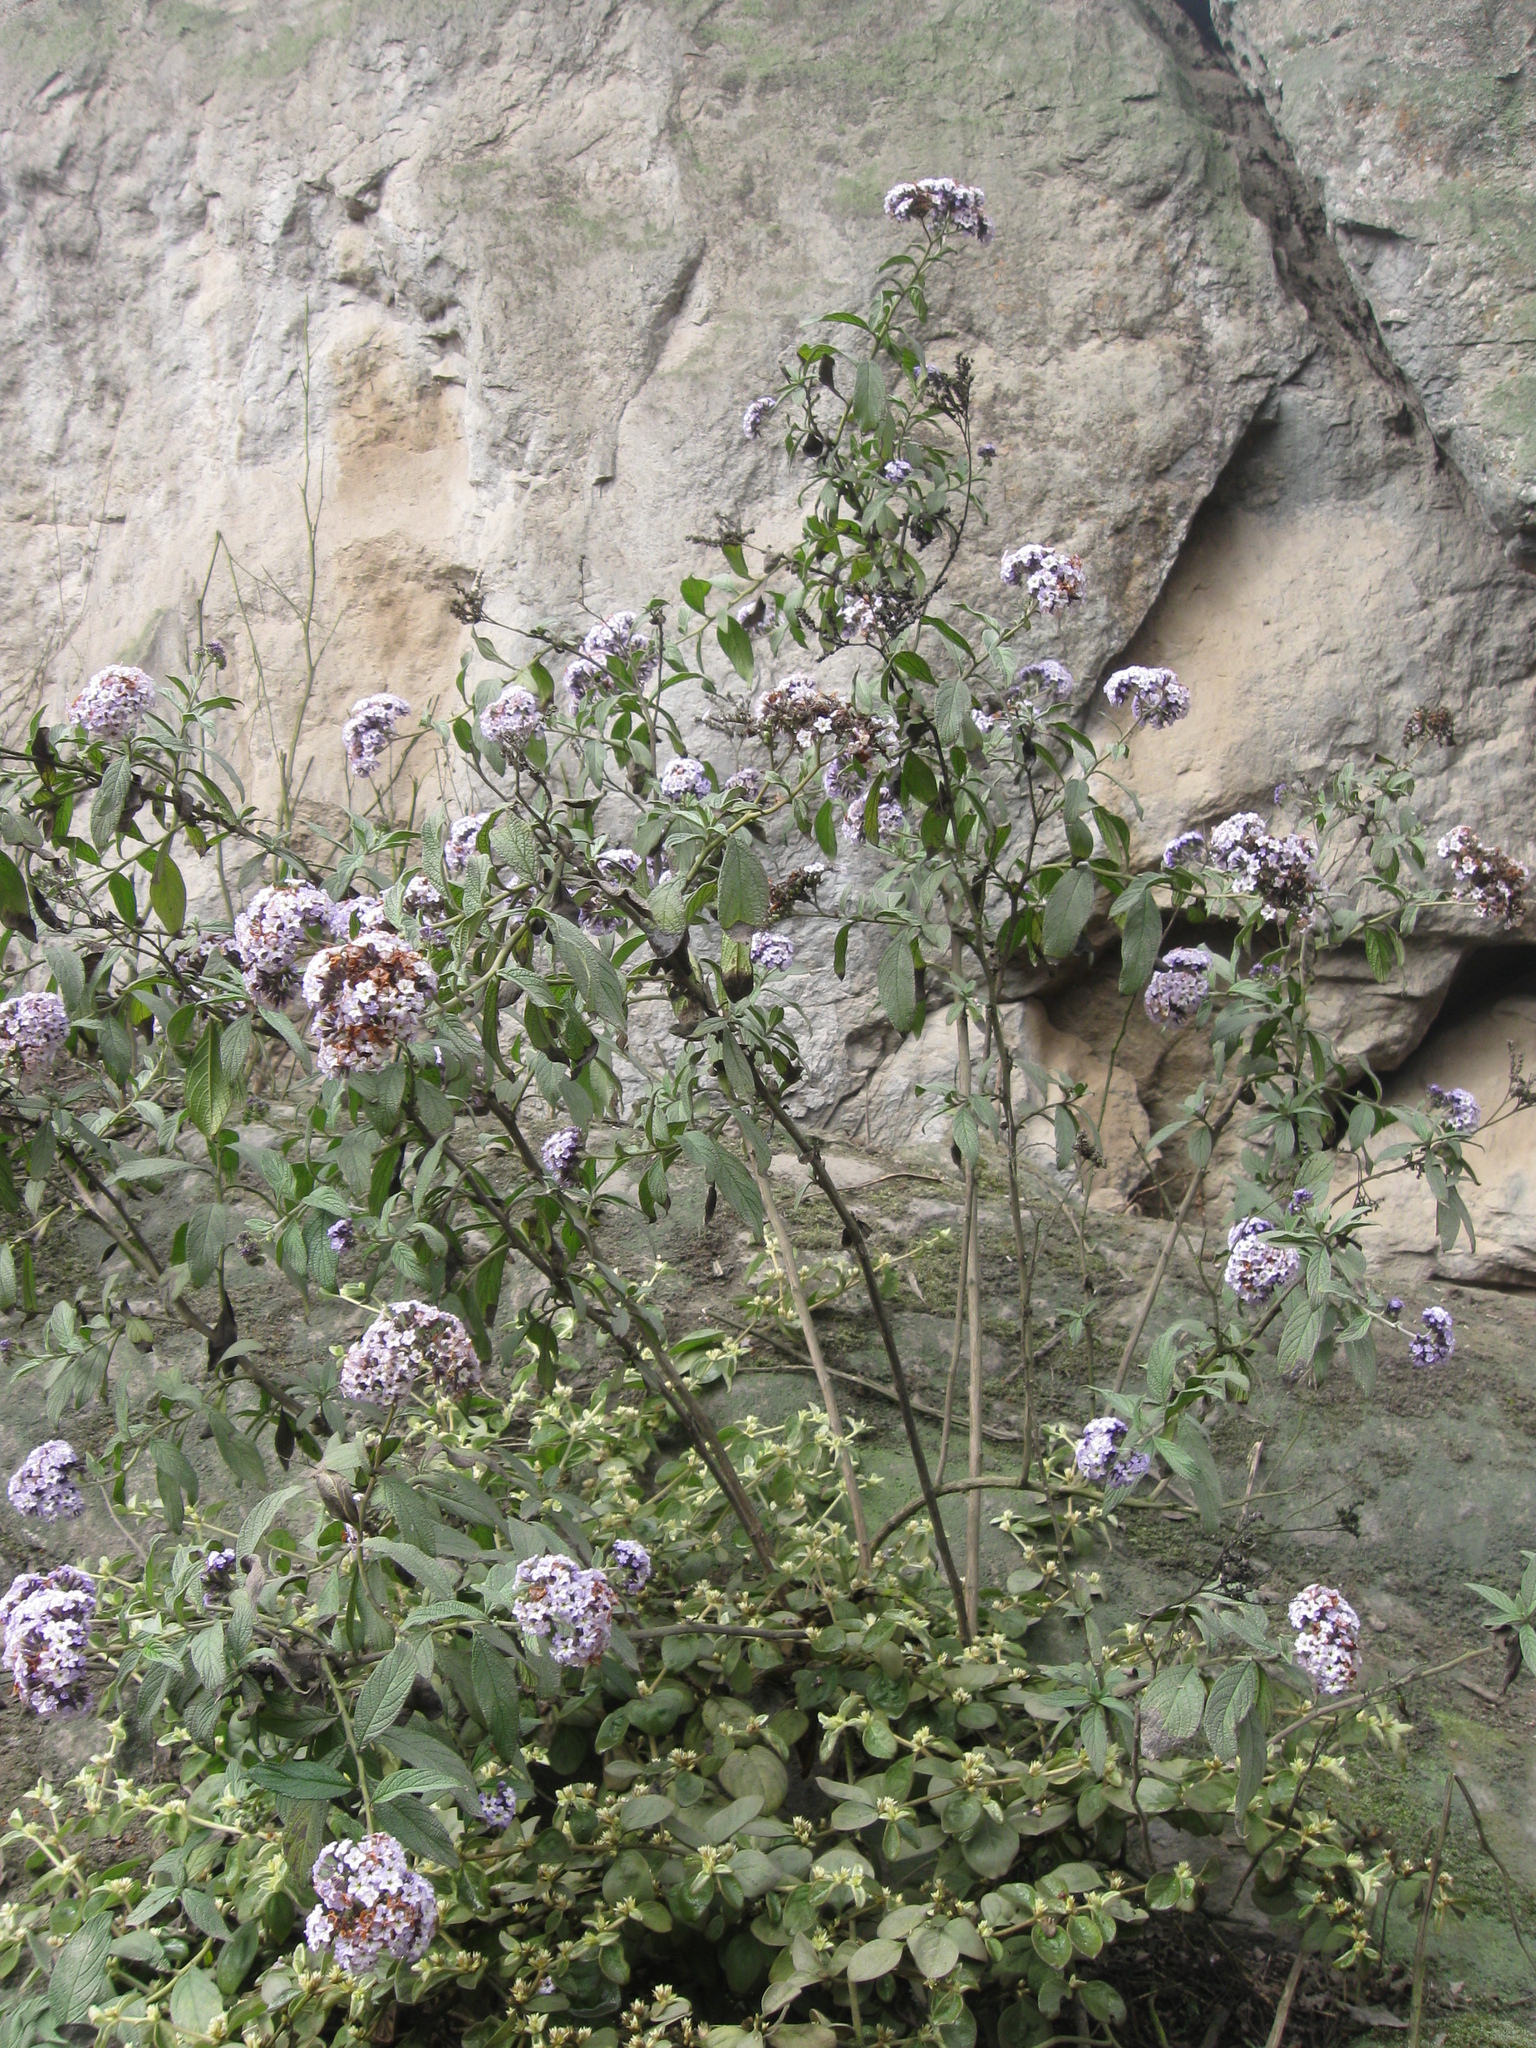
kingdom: Plantae
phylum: Tracheophyta
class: Magnoliopsida
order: Boraginales
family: Heliotropiaceae
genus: Heliotropium
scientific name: Heliotropium arborescens
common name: Cherry-pie
